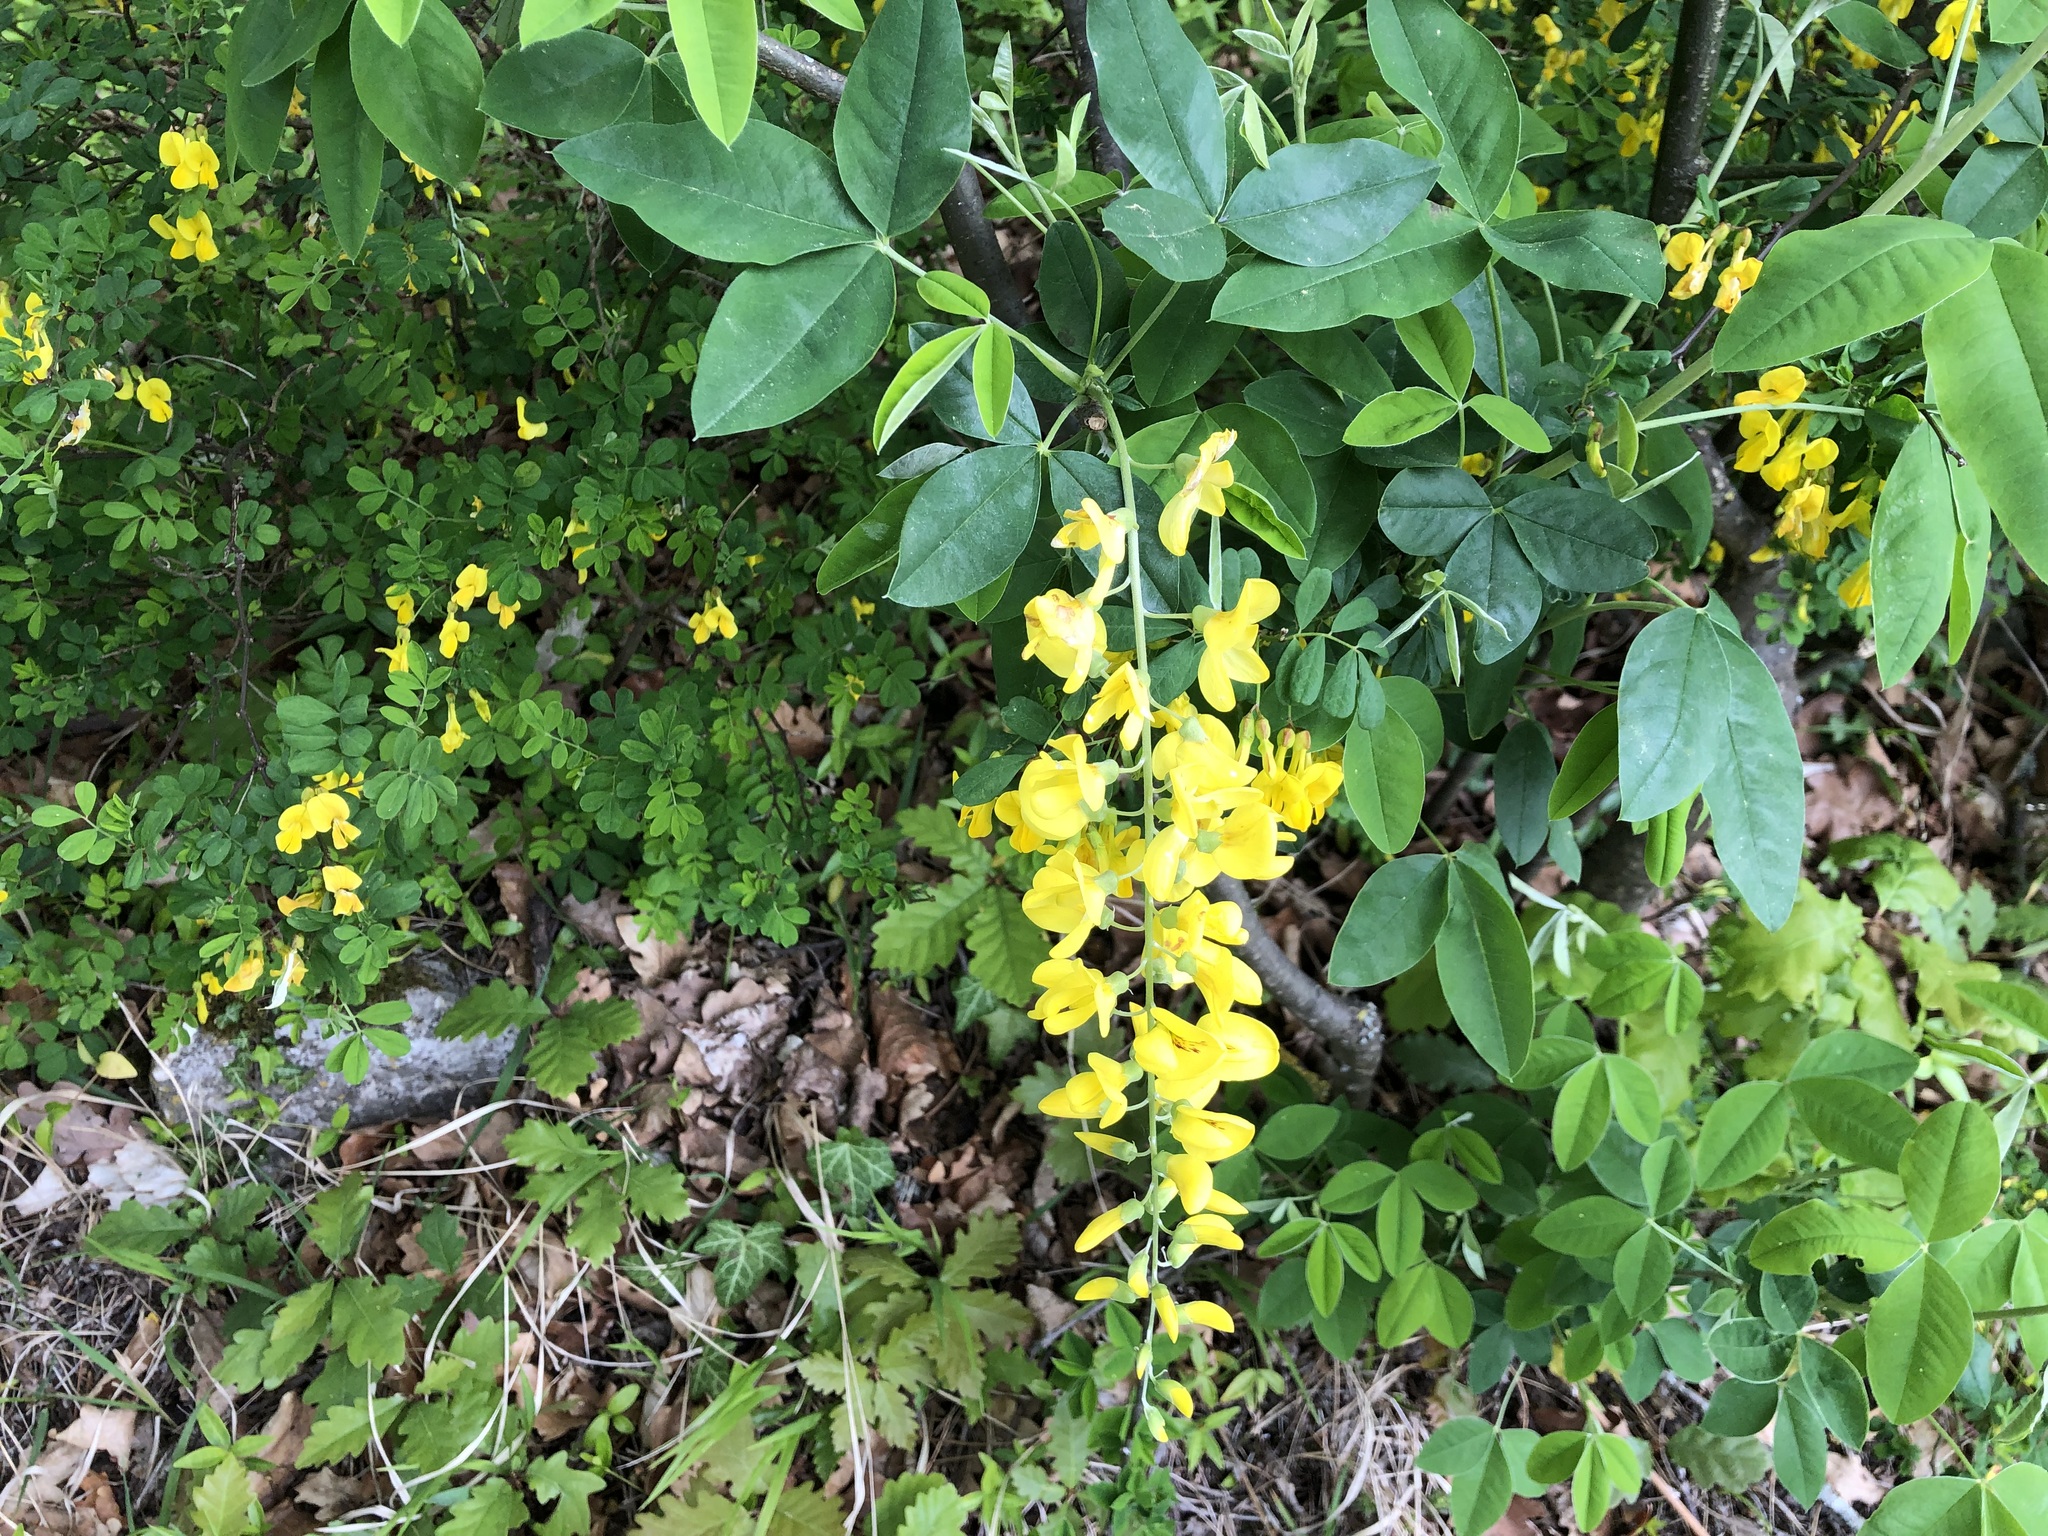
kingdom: Plantae
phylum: Tracheophyta
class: Magnoliopsida
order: Fabales
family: Fabaceae
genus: Laburnum
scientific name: Laburnum anagyroides
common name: Laburnum
